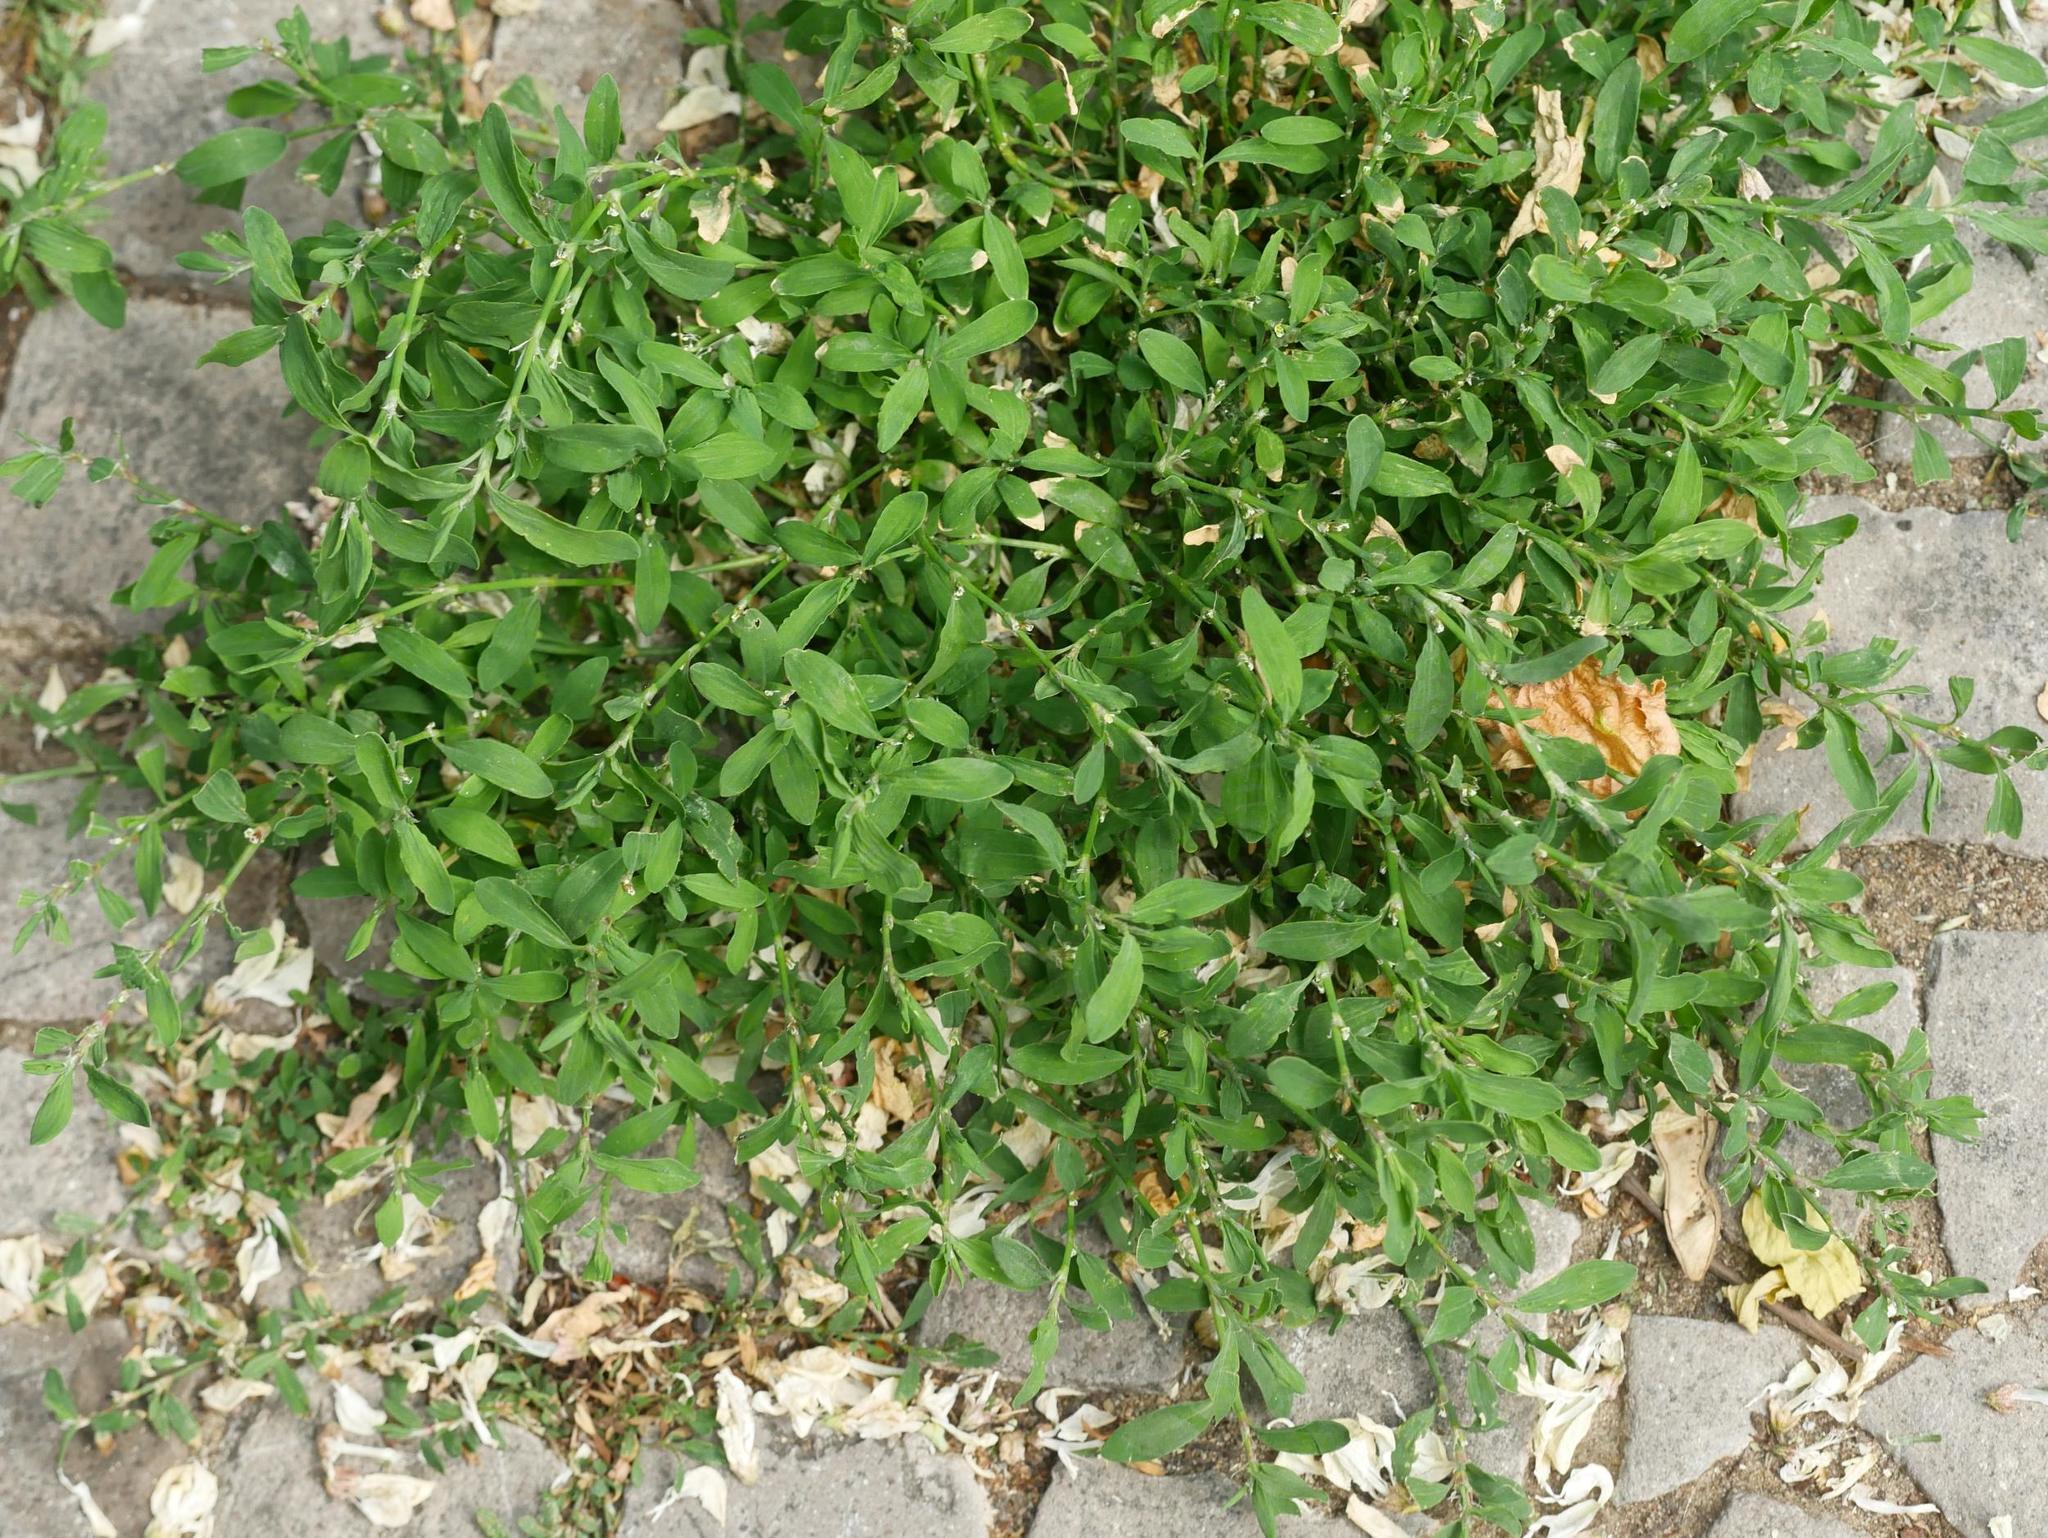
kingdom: Plantae
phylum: Tracheophyta
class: Magnoliopsida
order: Caryophyllales
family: Polygonaceae
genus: Polygonum
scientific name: Polygonum aviculare
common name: Prostrate knotweed
